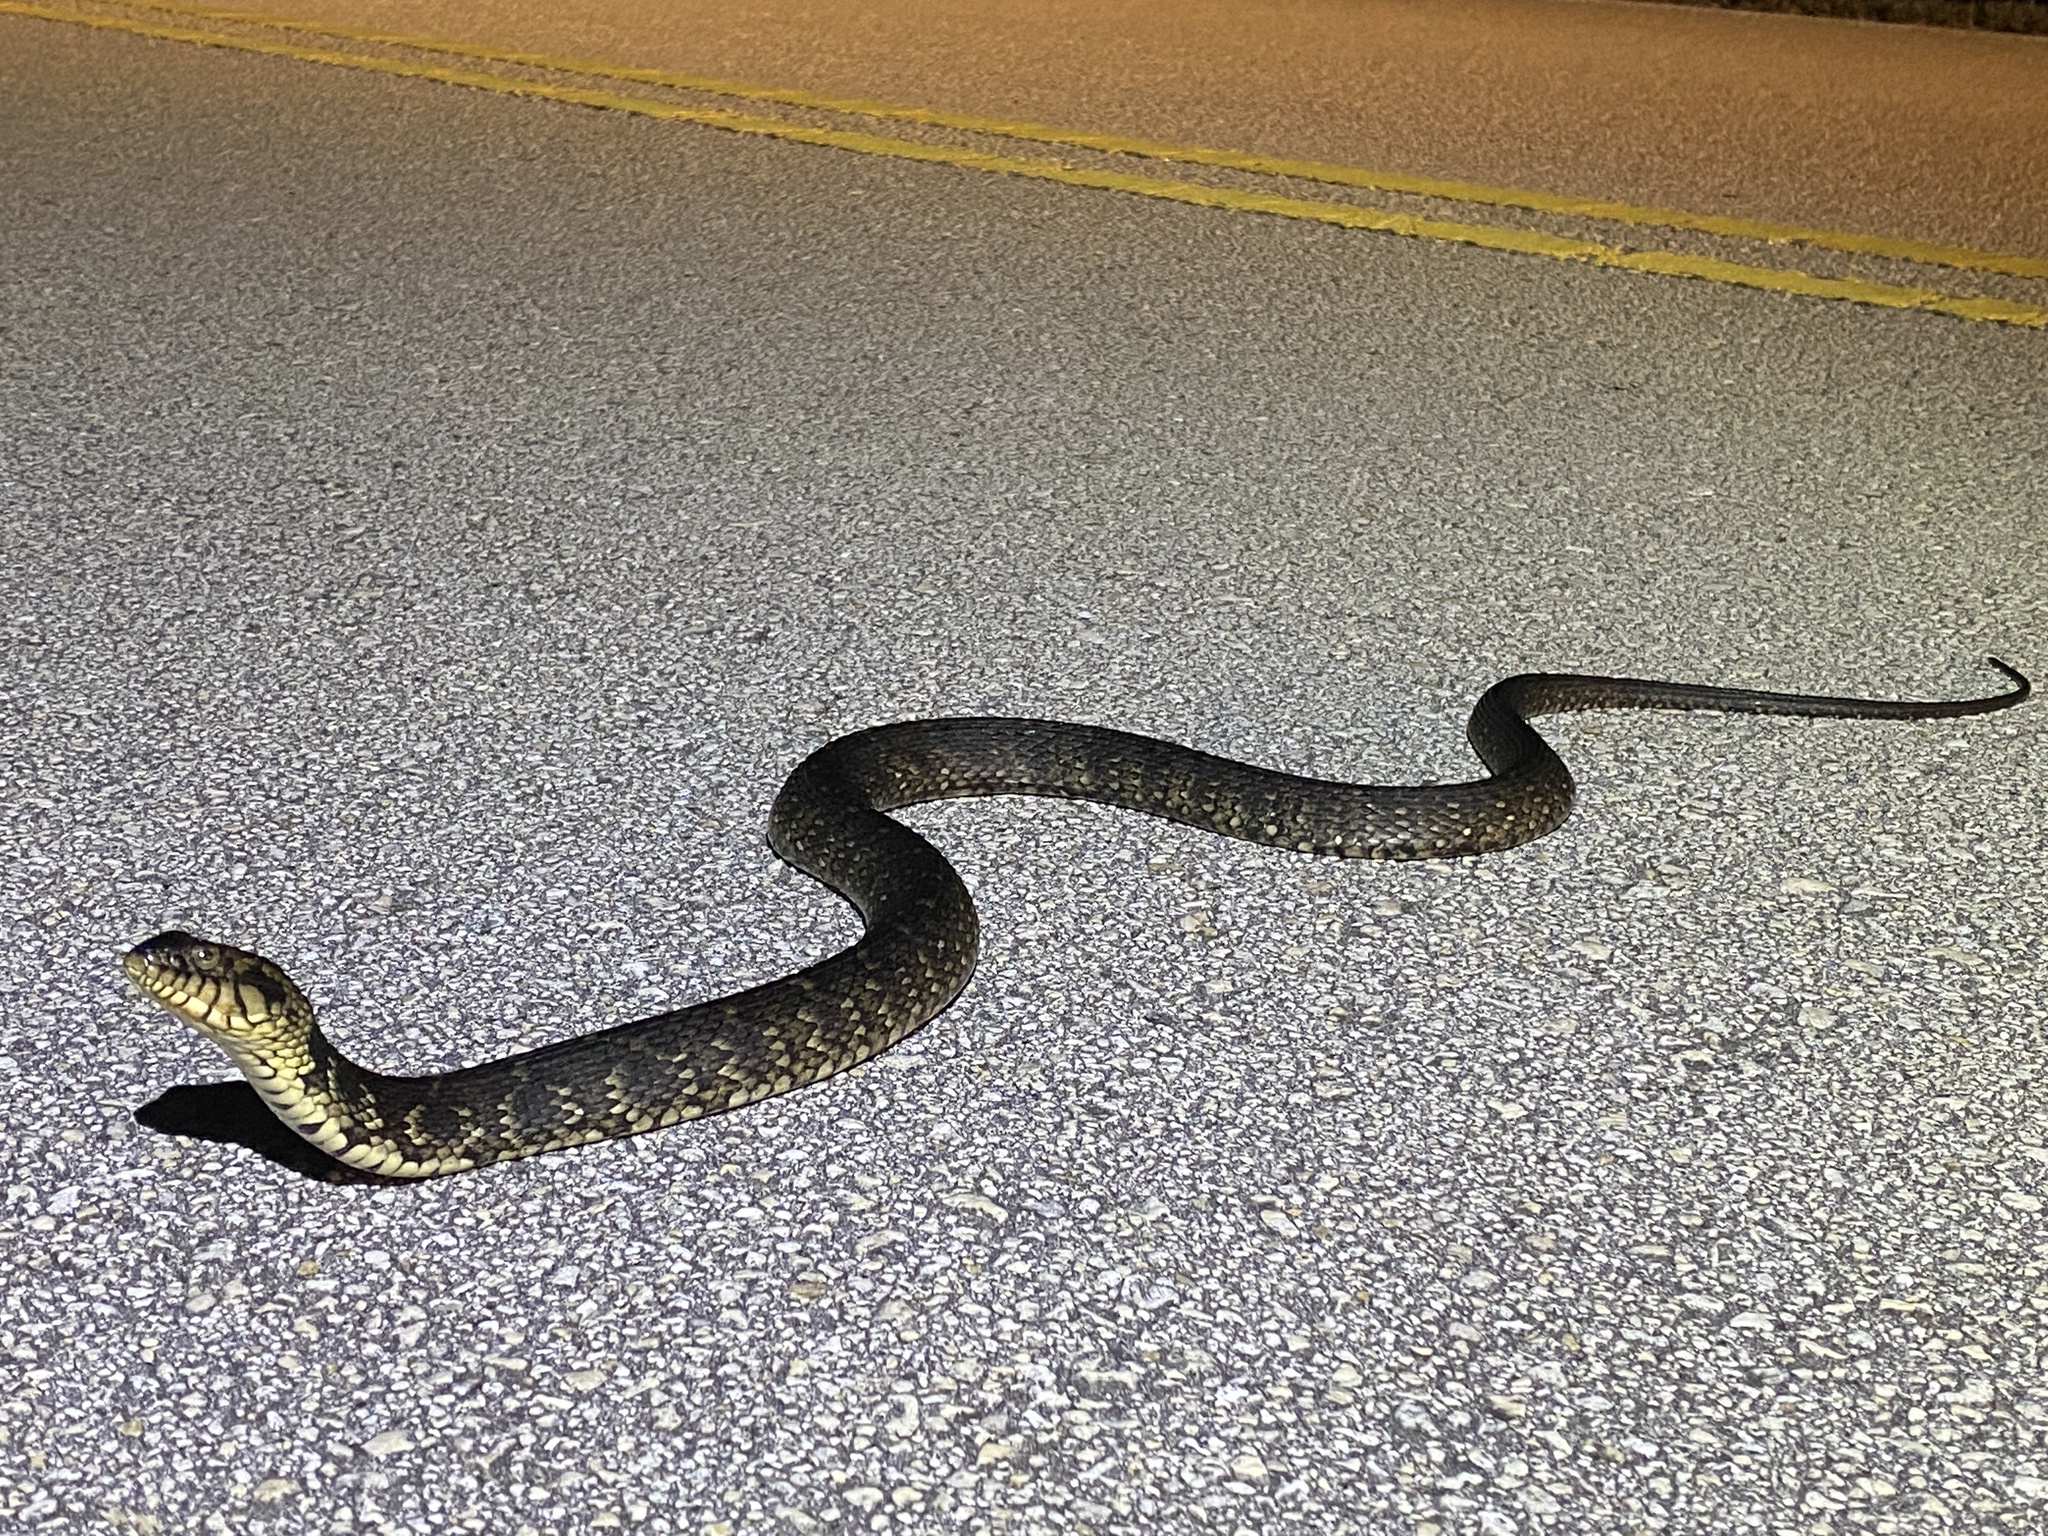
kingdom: Animalia
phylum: Chordata
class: Squamata
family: Colubridae
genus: Nerodia
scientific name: Nerodia fasciata
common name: Southern water snake
